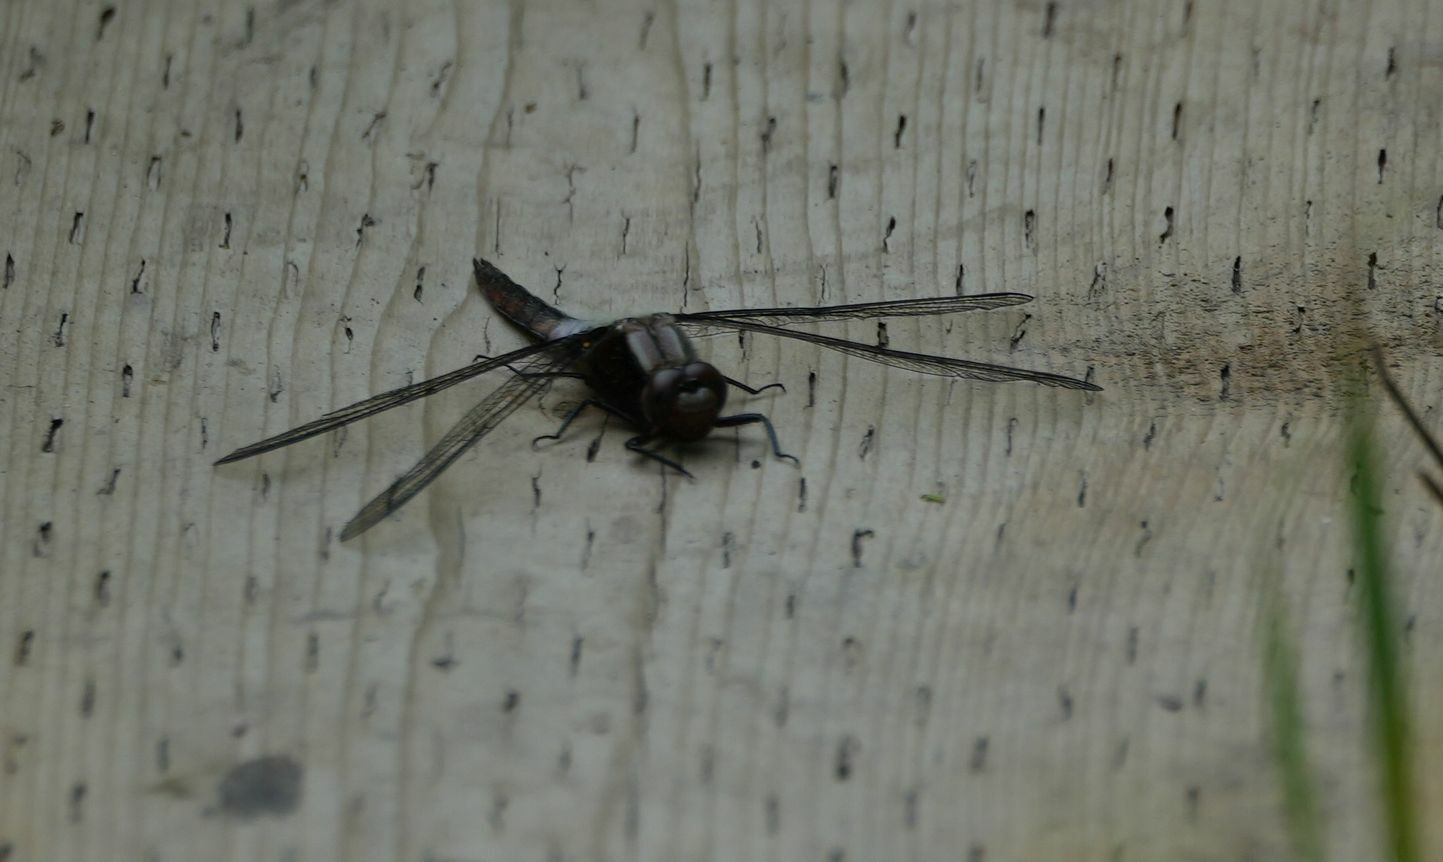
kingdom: Animalia
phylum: Arthropoda
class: Insecta
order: Odonata
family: Libellulidae
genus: Ladona
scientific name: Ladona julia
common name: Chalk-fronted corporal
